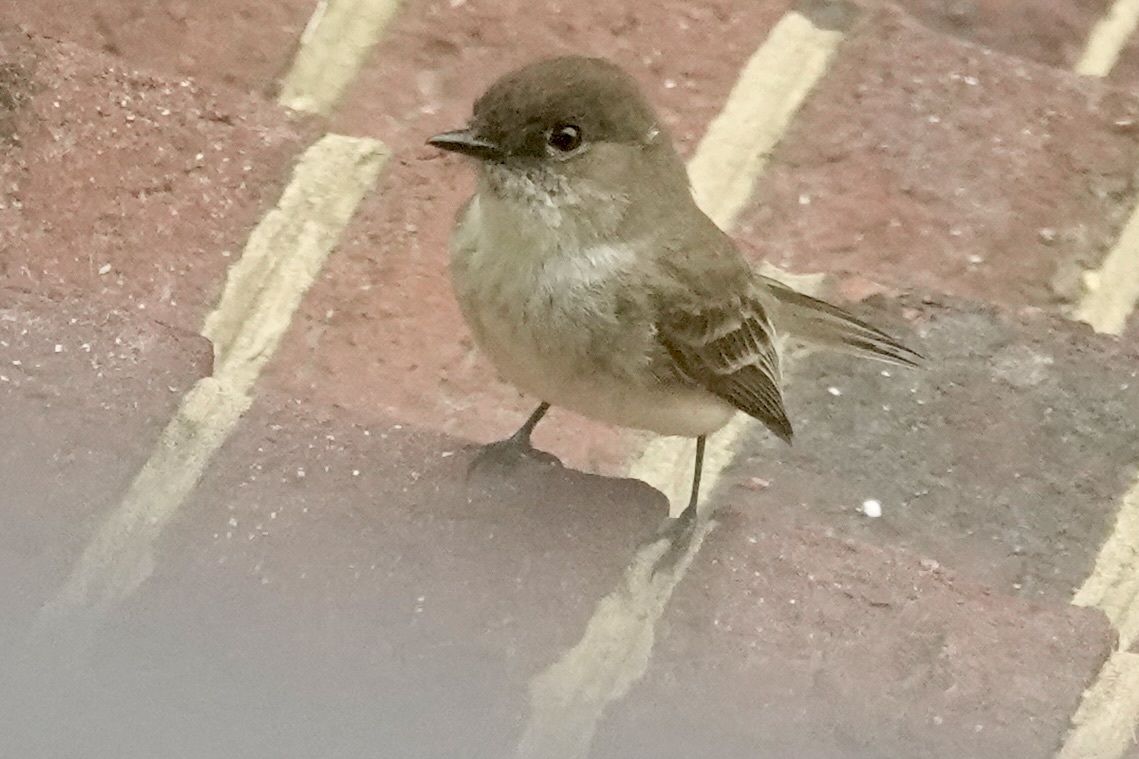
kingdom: Animalia
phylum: Chordata
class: Aves
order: Passeriformes
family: Tyrannidae
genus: Sayornis
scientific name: Sayornis phoebe
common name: Eastern phoebe
